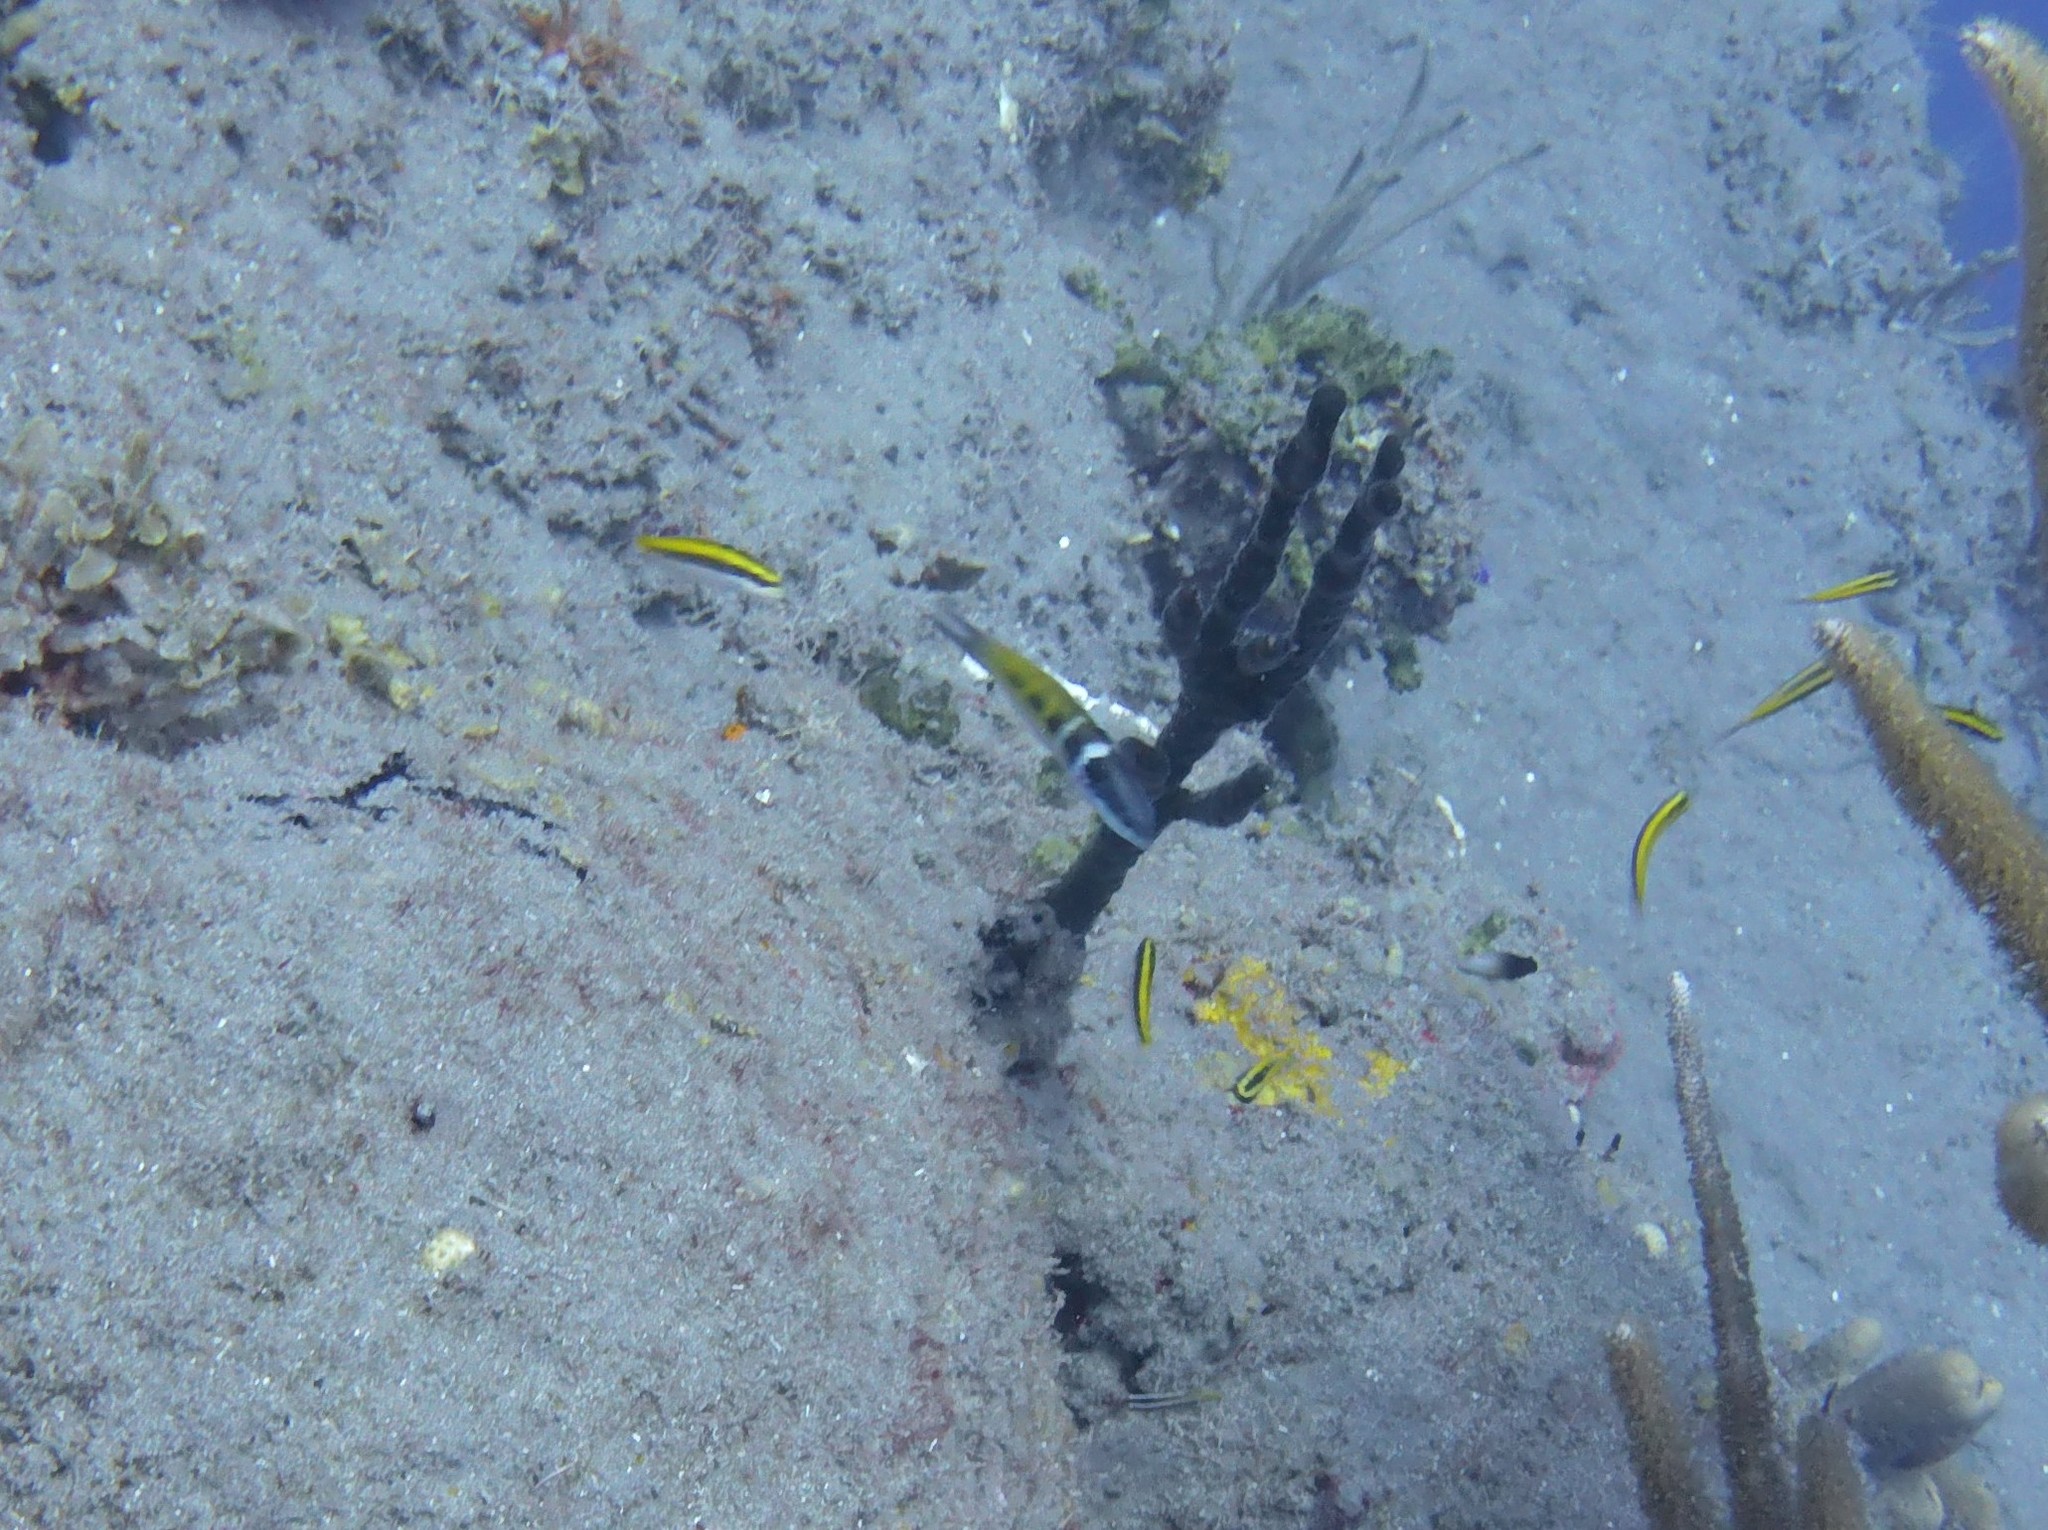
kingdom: Animalia
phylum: Chordata
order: Perciformes
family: Labridae
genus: Thalassoma
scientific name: Thalassoma bifasciatum
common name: Bluehead wrasse
